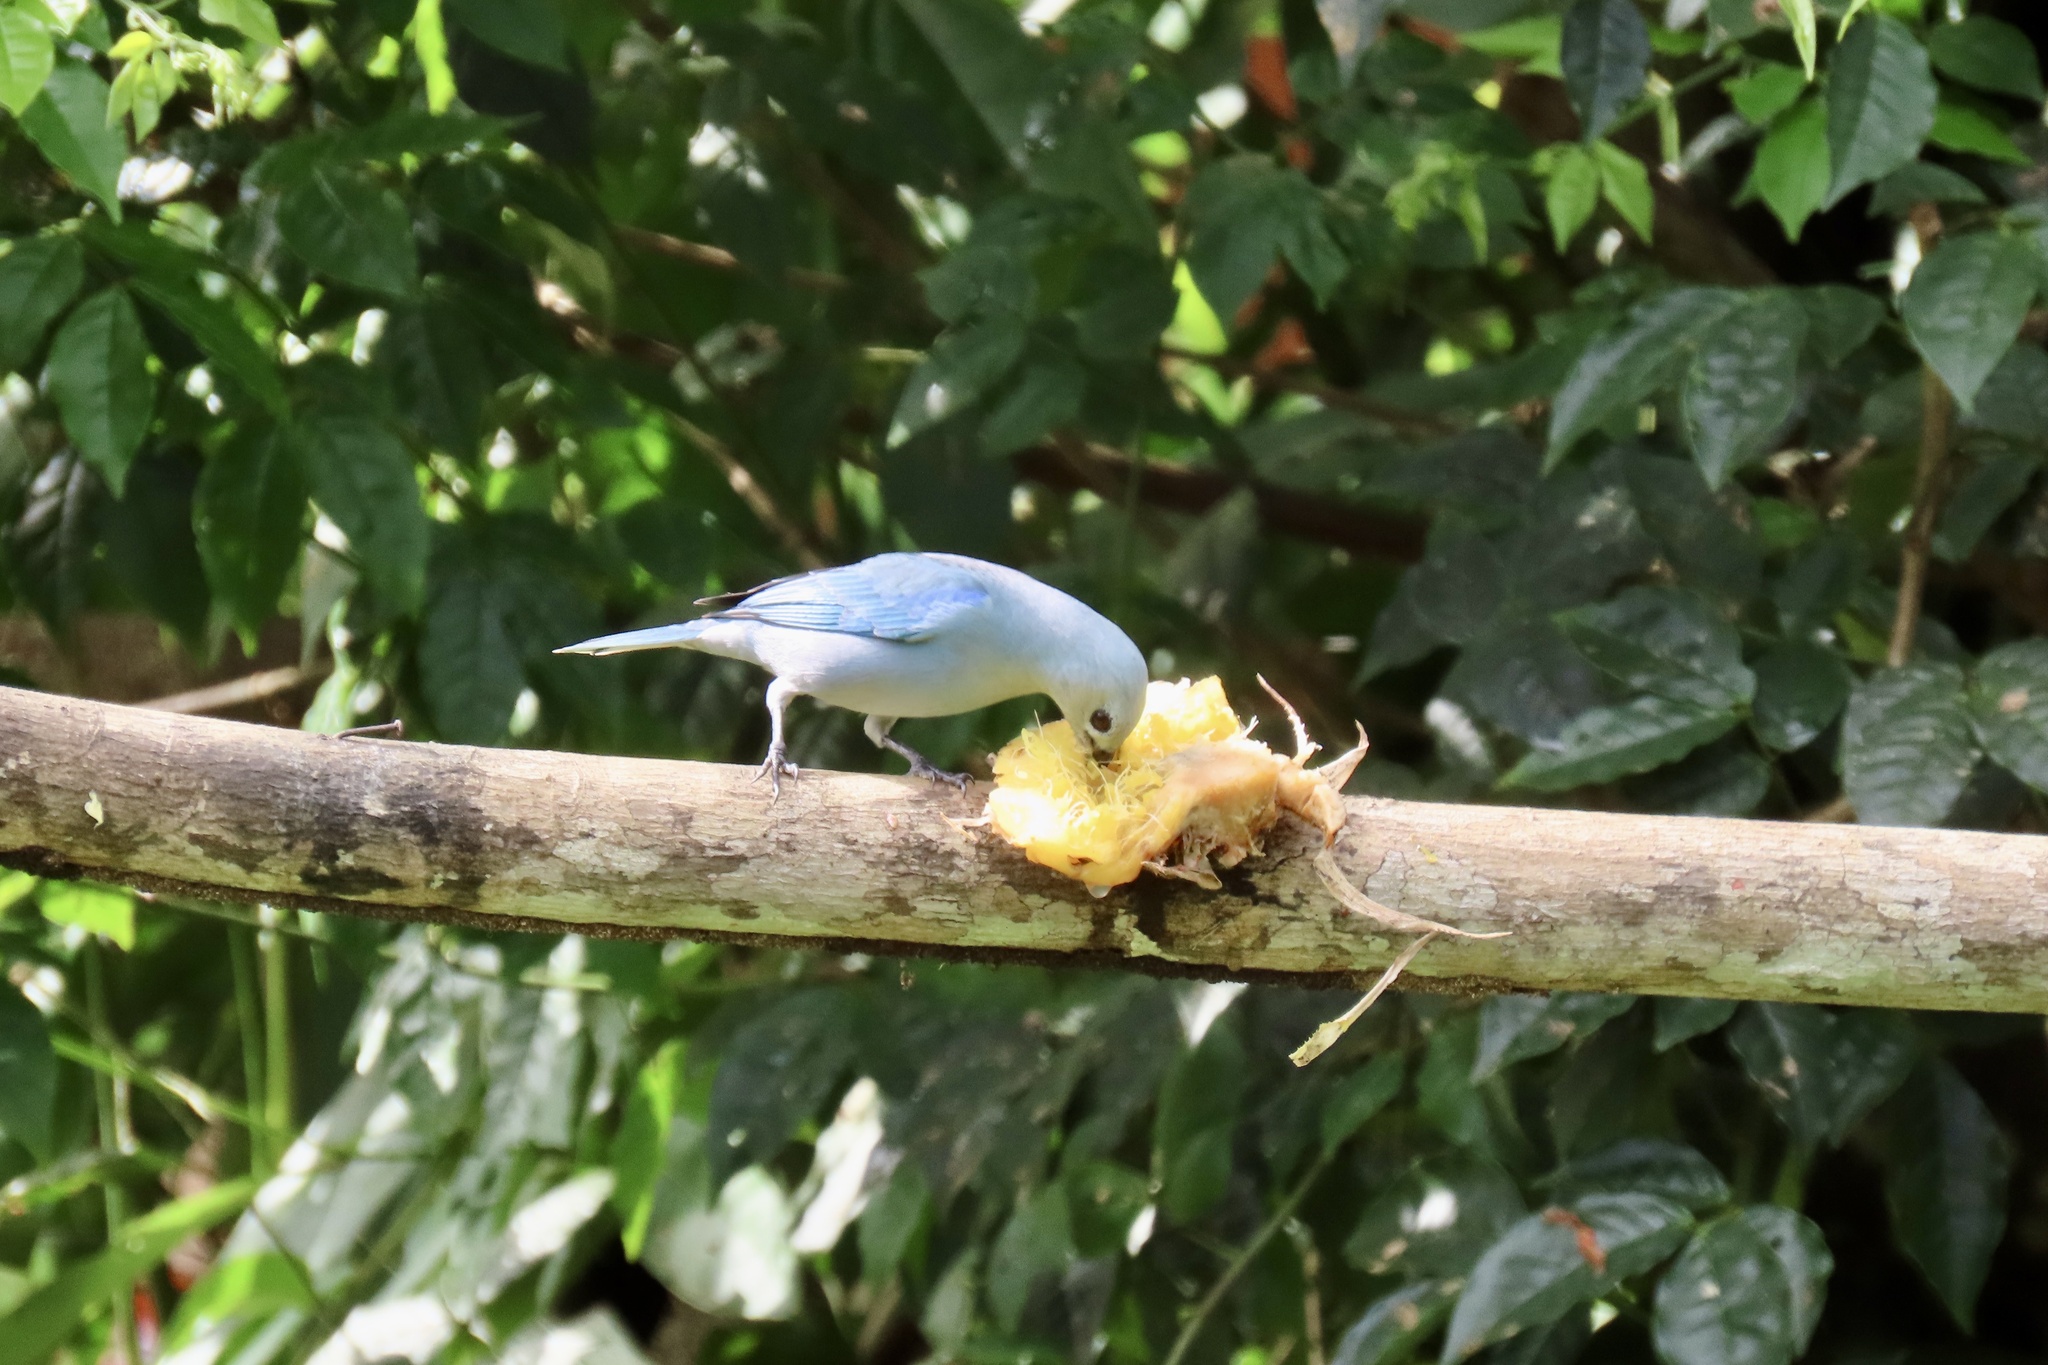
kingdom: Animalia
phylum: Chordata
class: Aves
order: Passeriformes
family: Thraupidae
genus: Thraupis
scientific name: Thraupis episcopus
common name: Blue-grey tanager
